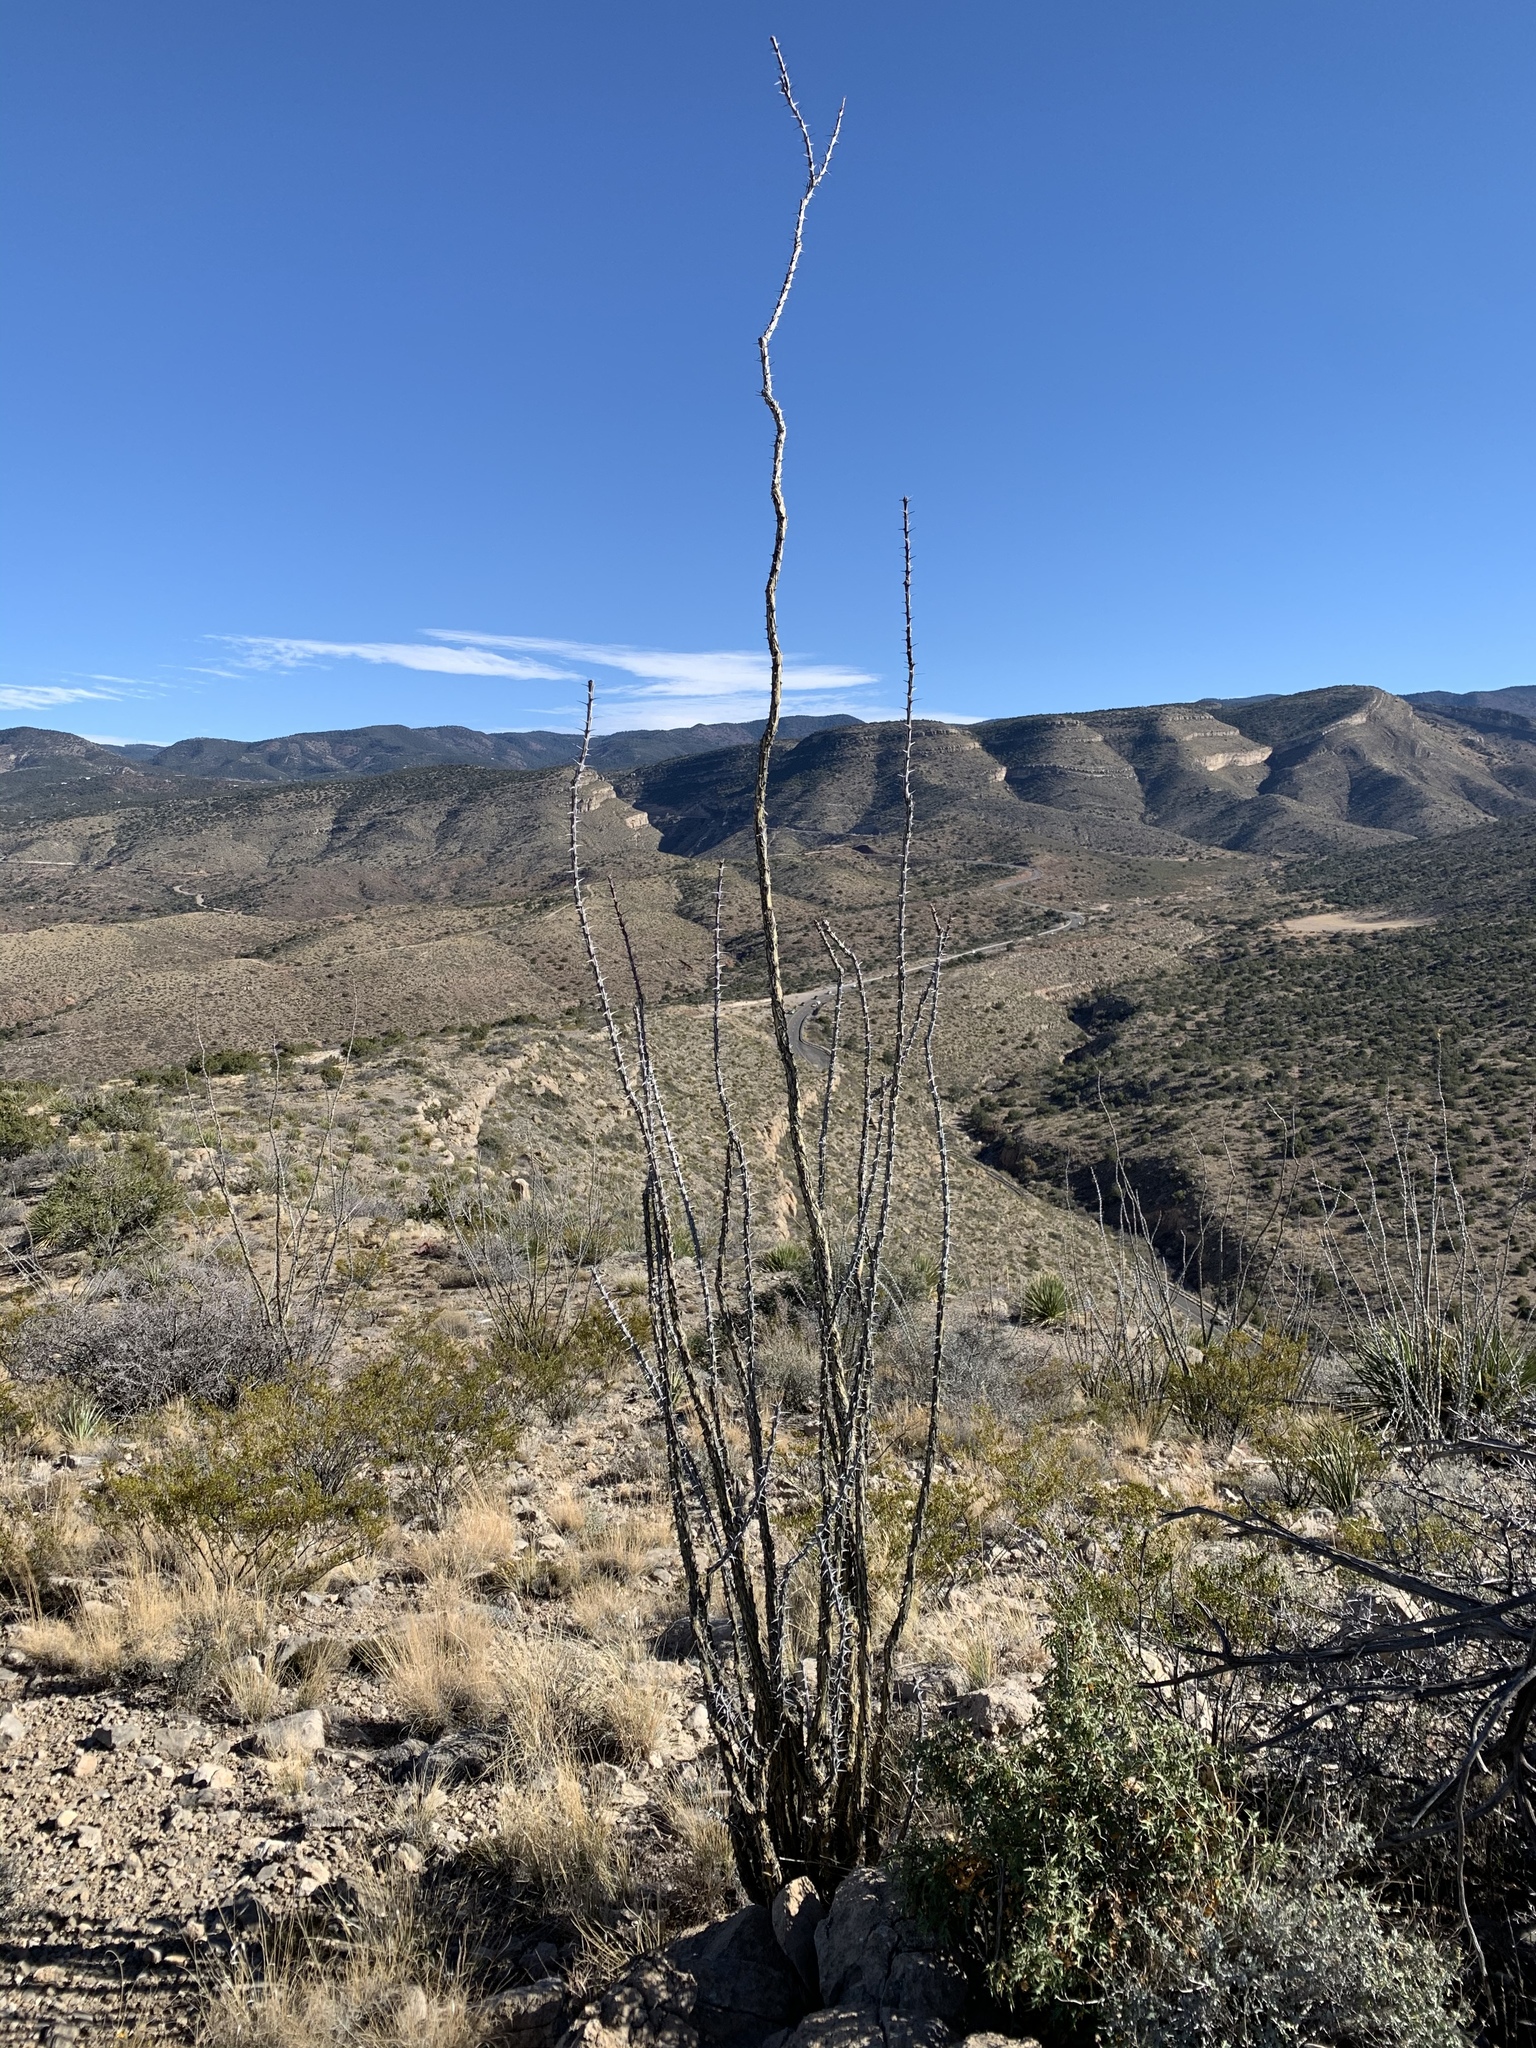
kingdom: Plantae
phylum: Tracheophyta
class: Magnoliopsida
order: Ericales
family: Fouquieriaceae
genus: Fouquieria
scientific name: Fouquieria splendens
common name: Vine-cactus
